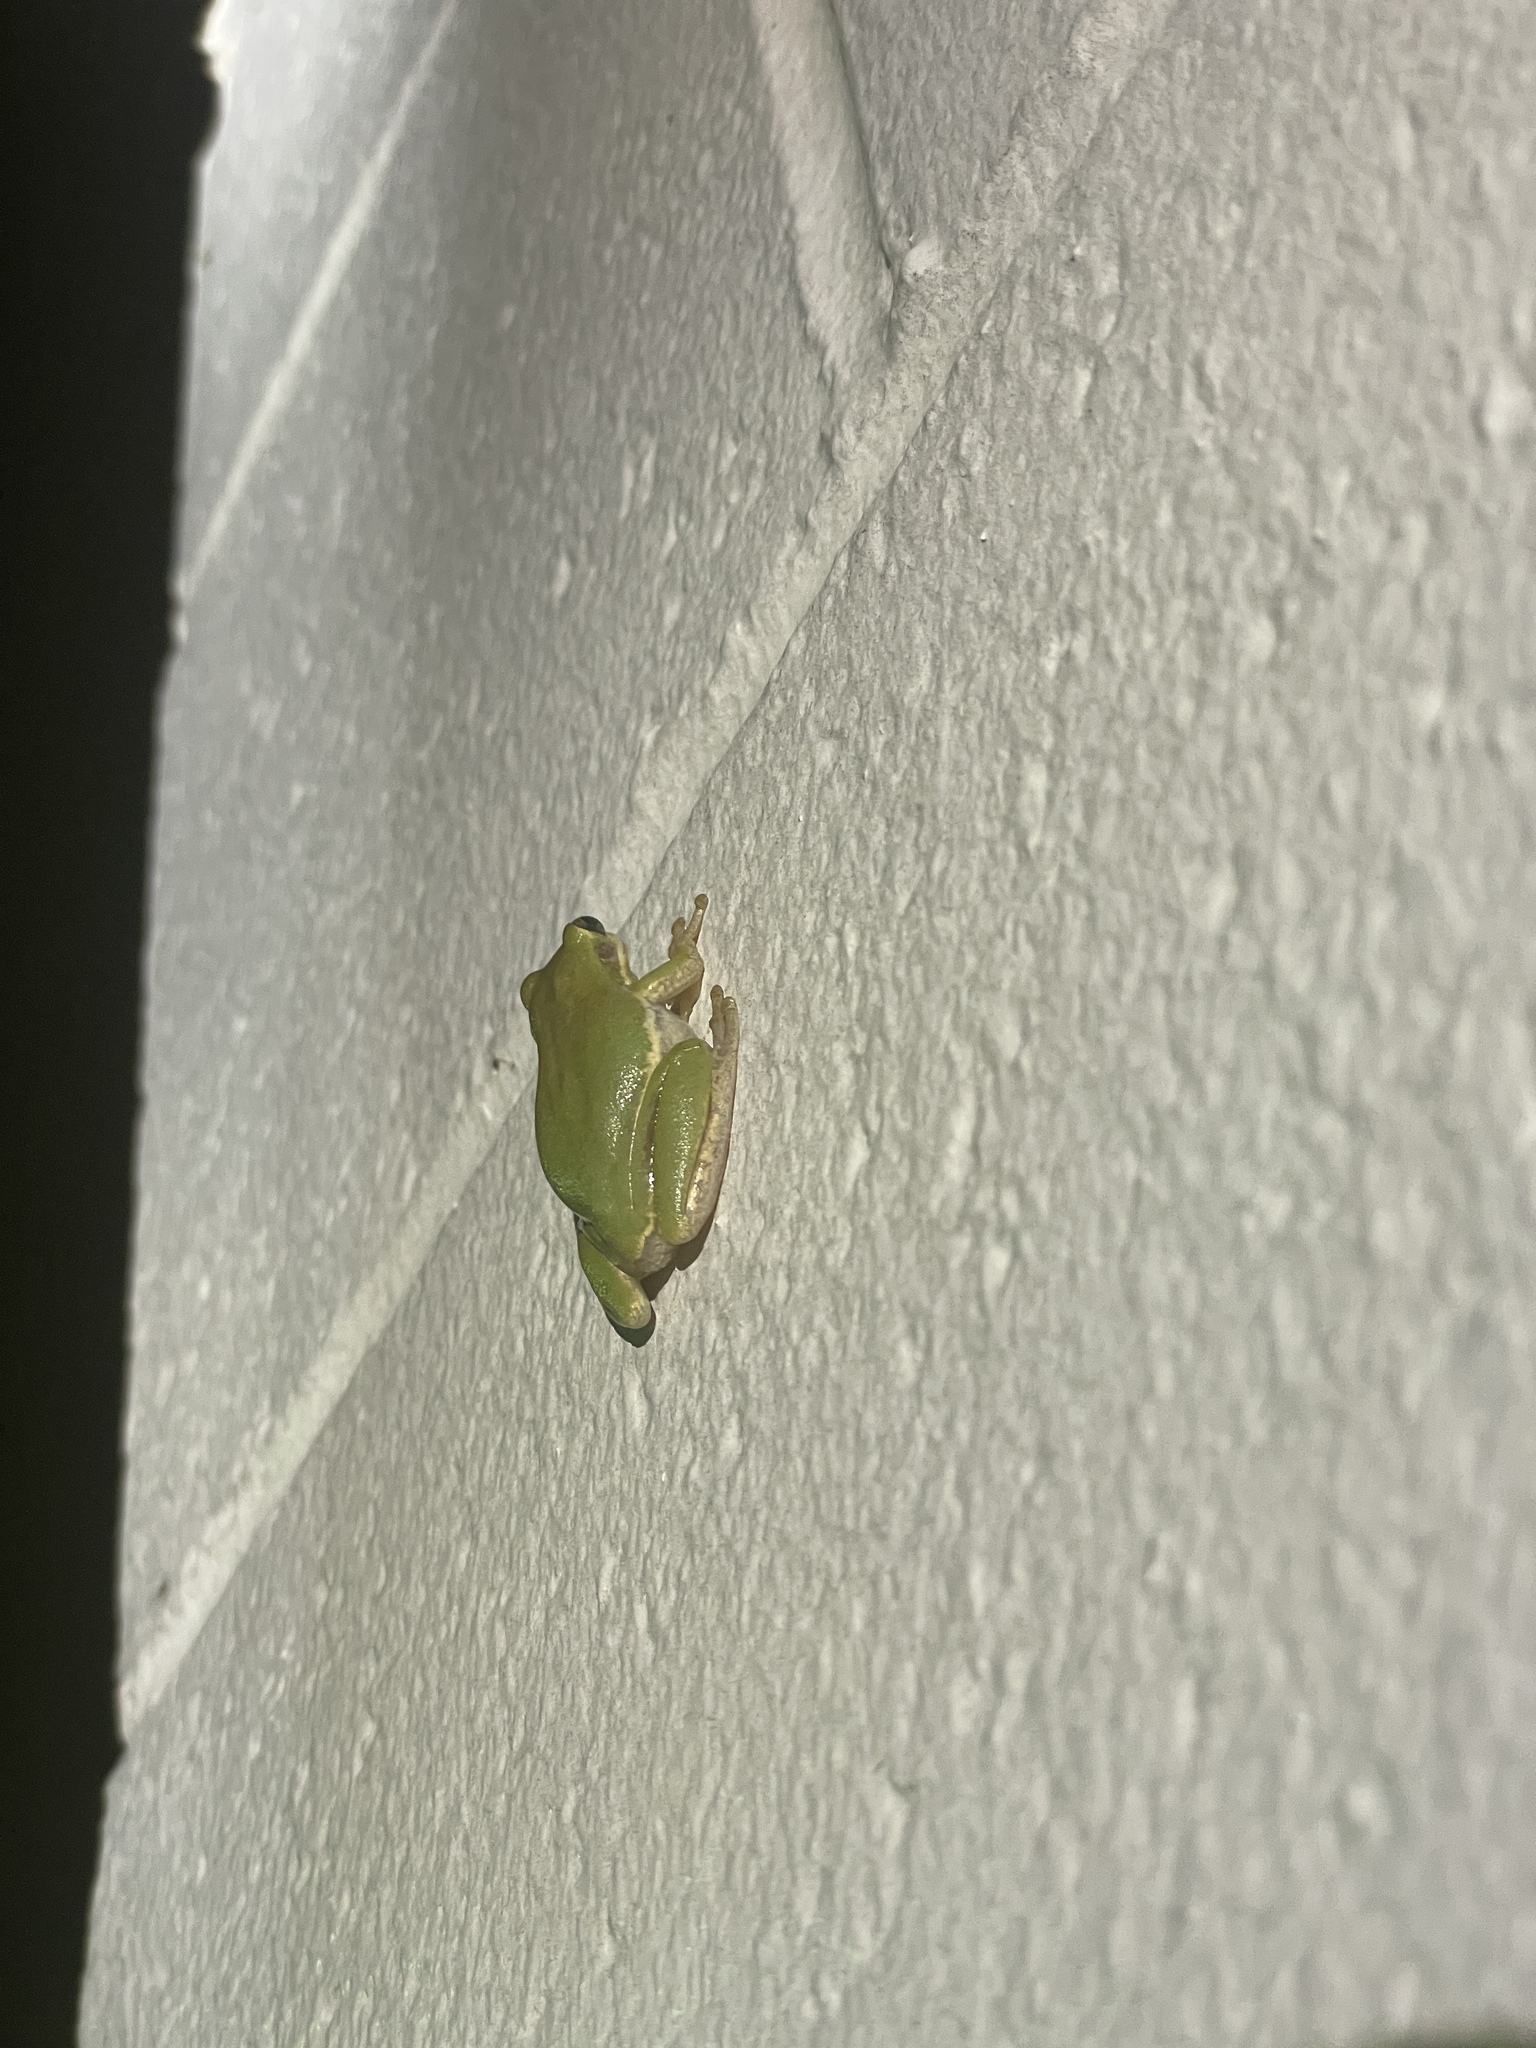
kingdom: Animalia
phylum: Chordata
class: Amphibia
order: Anura
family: Hylidae
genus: Dryophytes
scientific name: Dryophytes squirellus
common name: Squirrel treefrog
